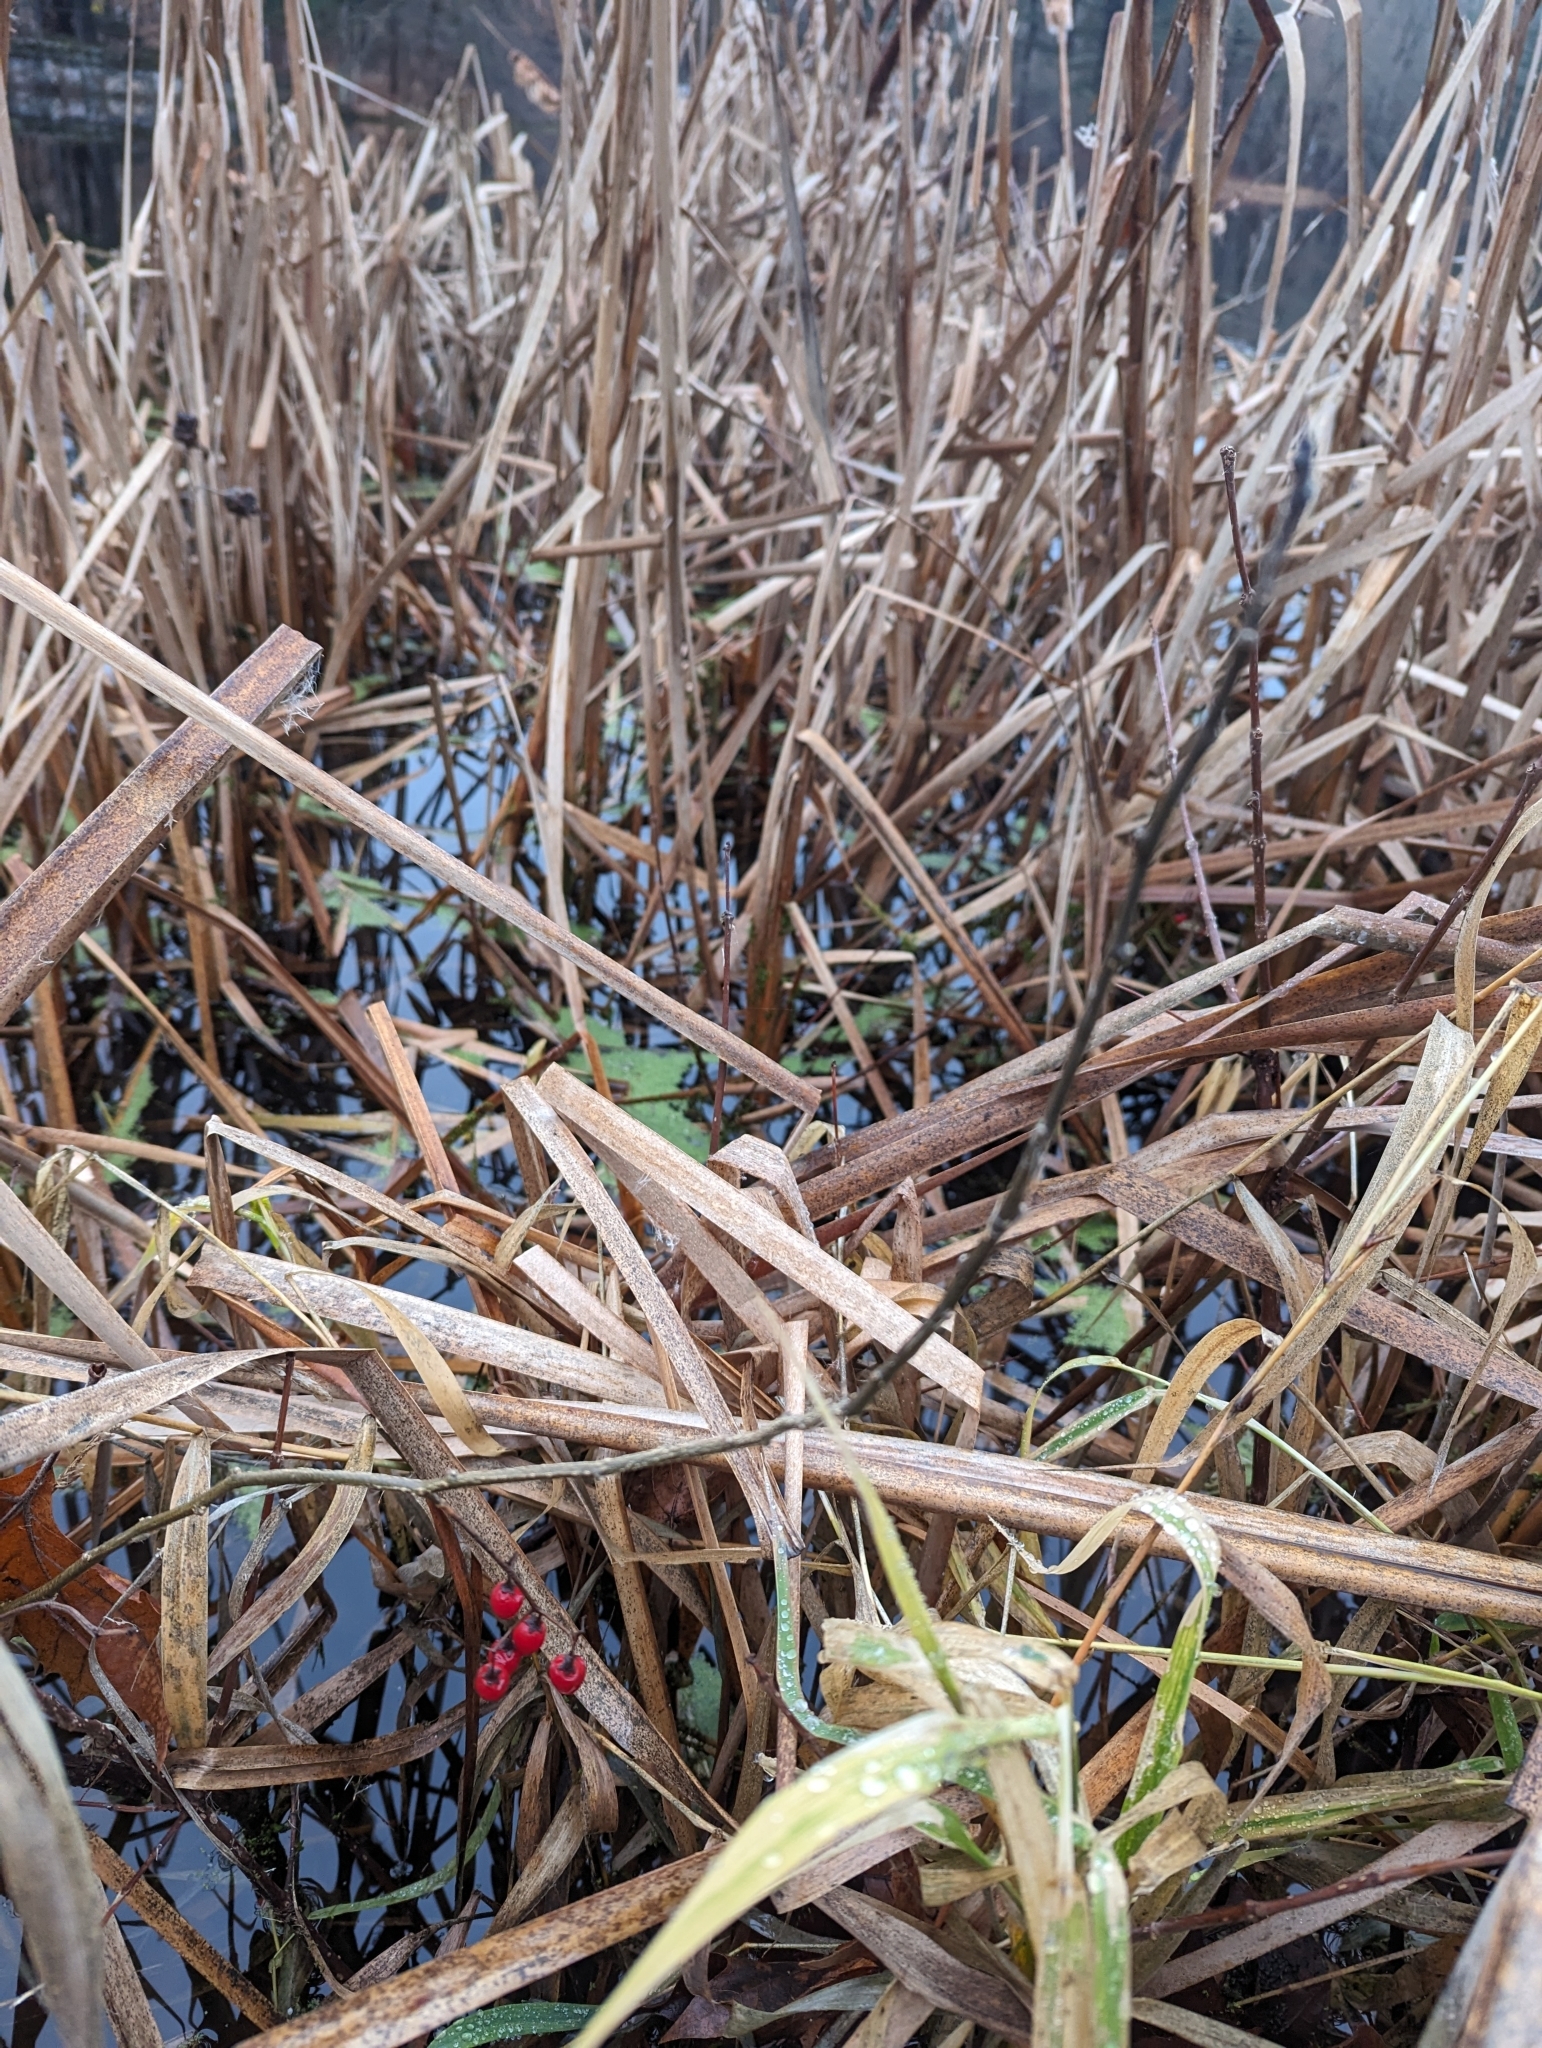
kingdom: Plantae
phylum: Tracheophyta
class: Magnoliopsida
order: Solanales
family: Solanaceae
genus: Solanum
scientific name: Solanum dulcamara
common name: Climbing nightshade
